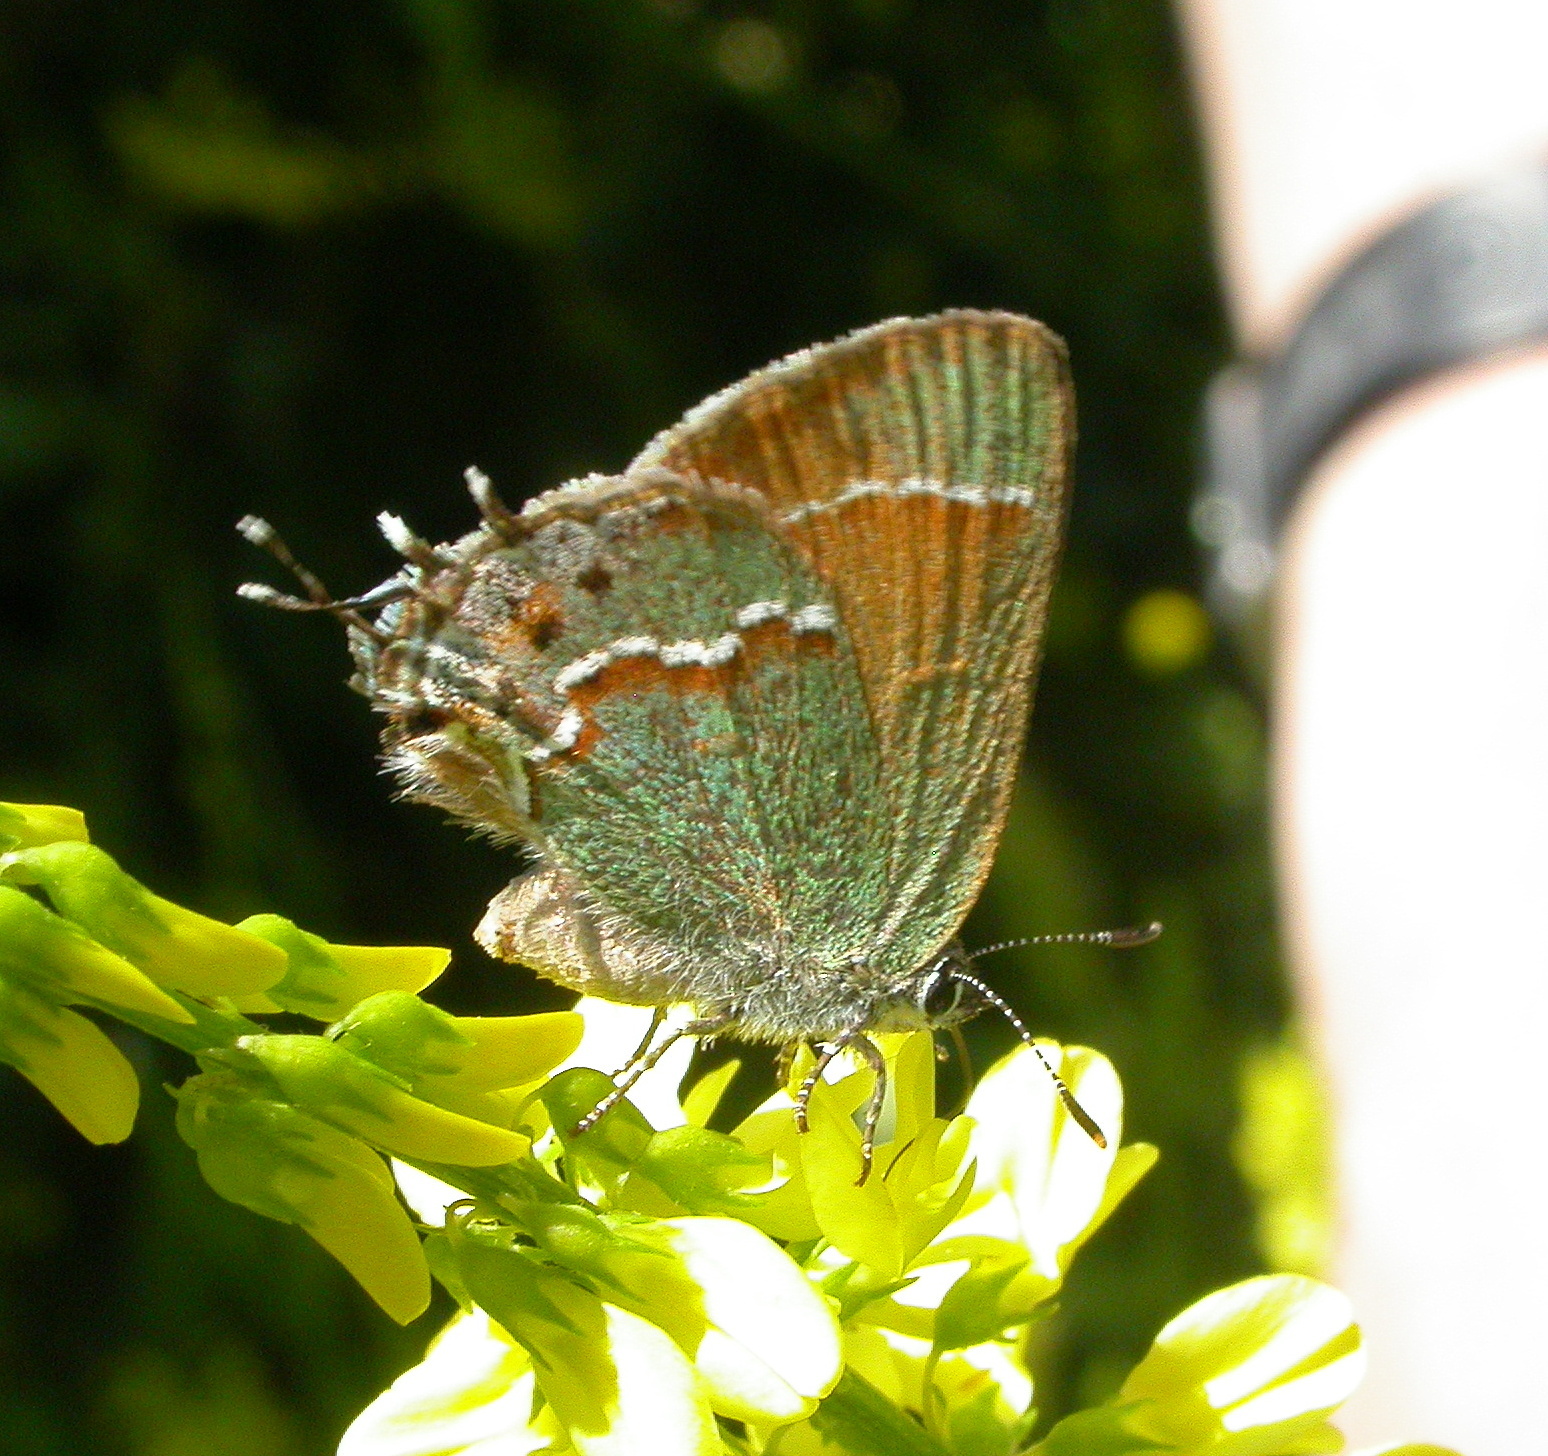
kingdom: Animalia
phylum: Arthropoda
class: Insecta
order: Lepidoptera
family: Lycaenidae
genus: Mitoura
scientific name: Mitoura siva
